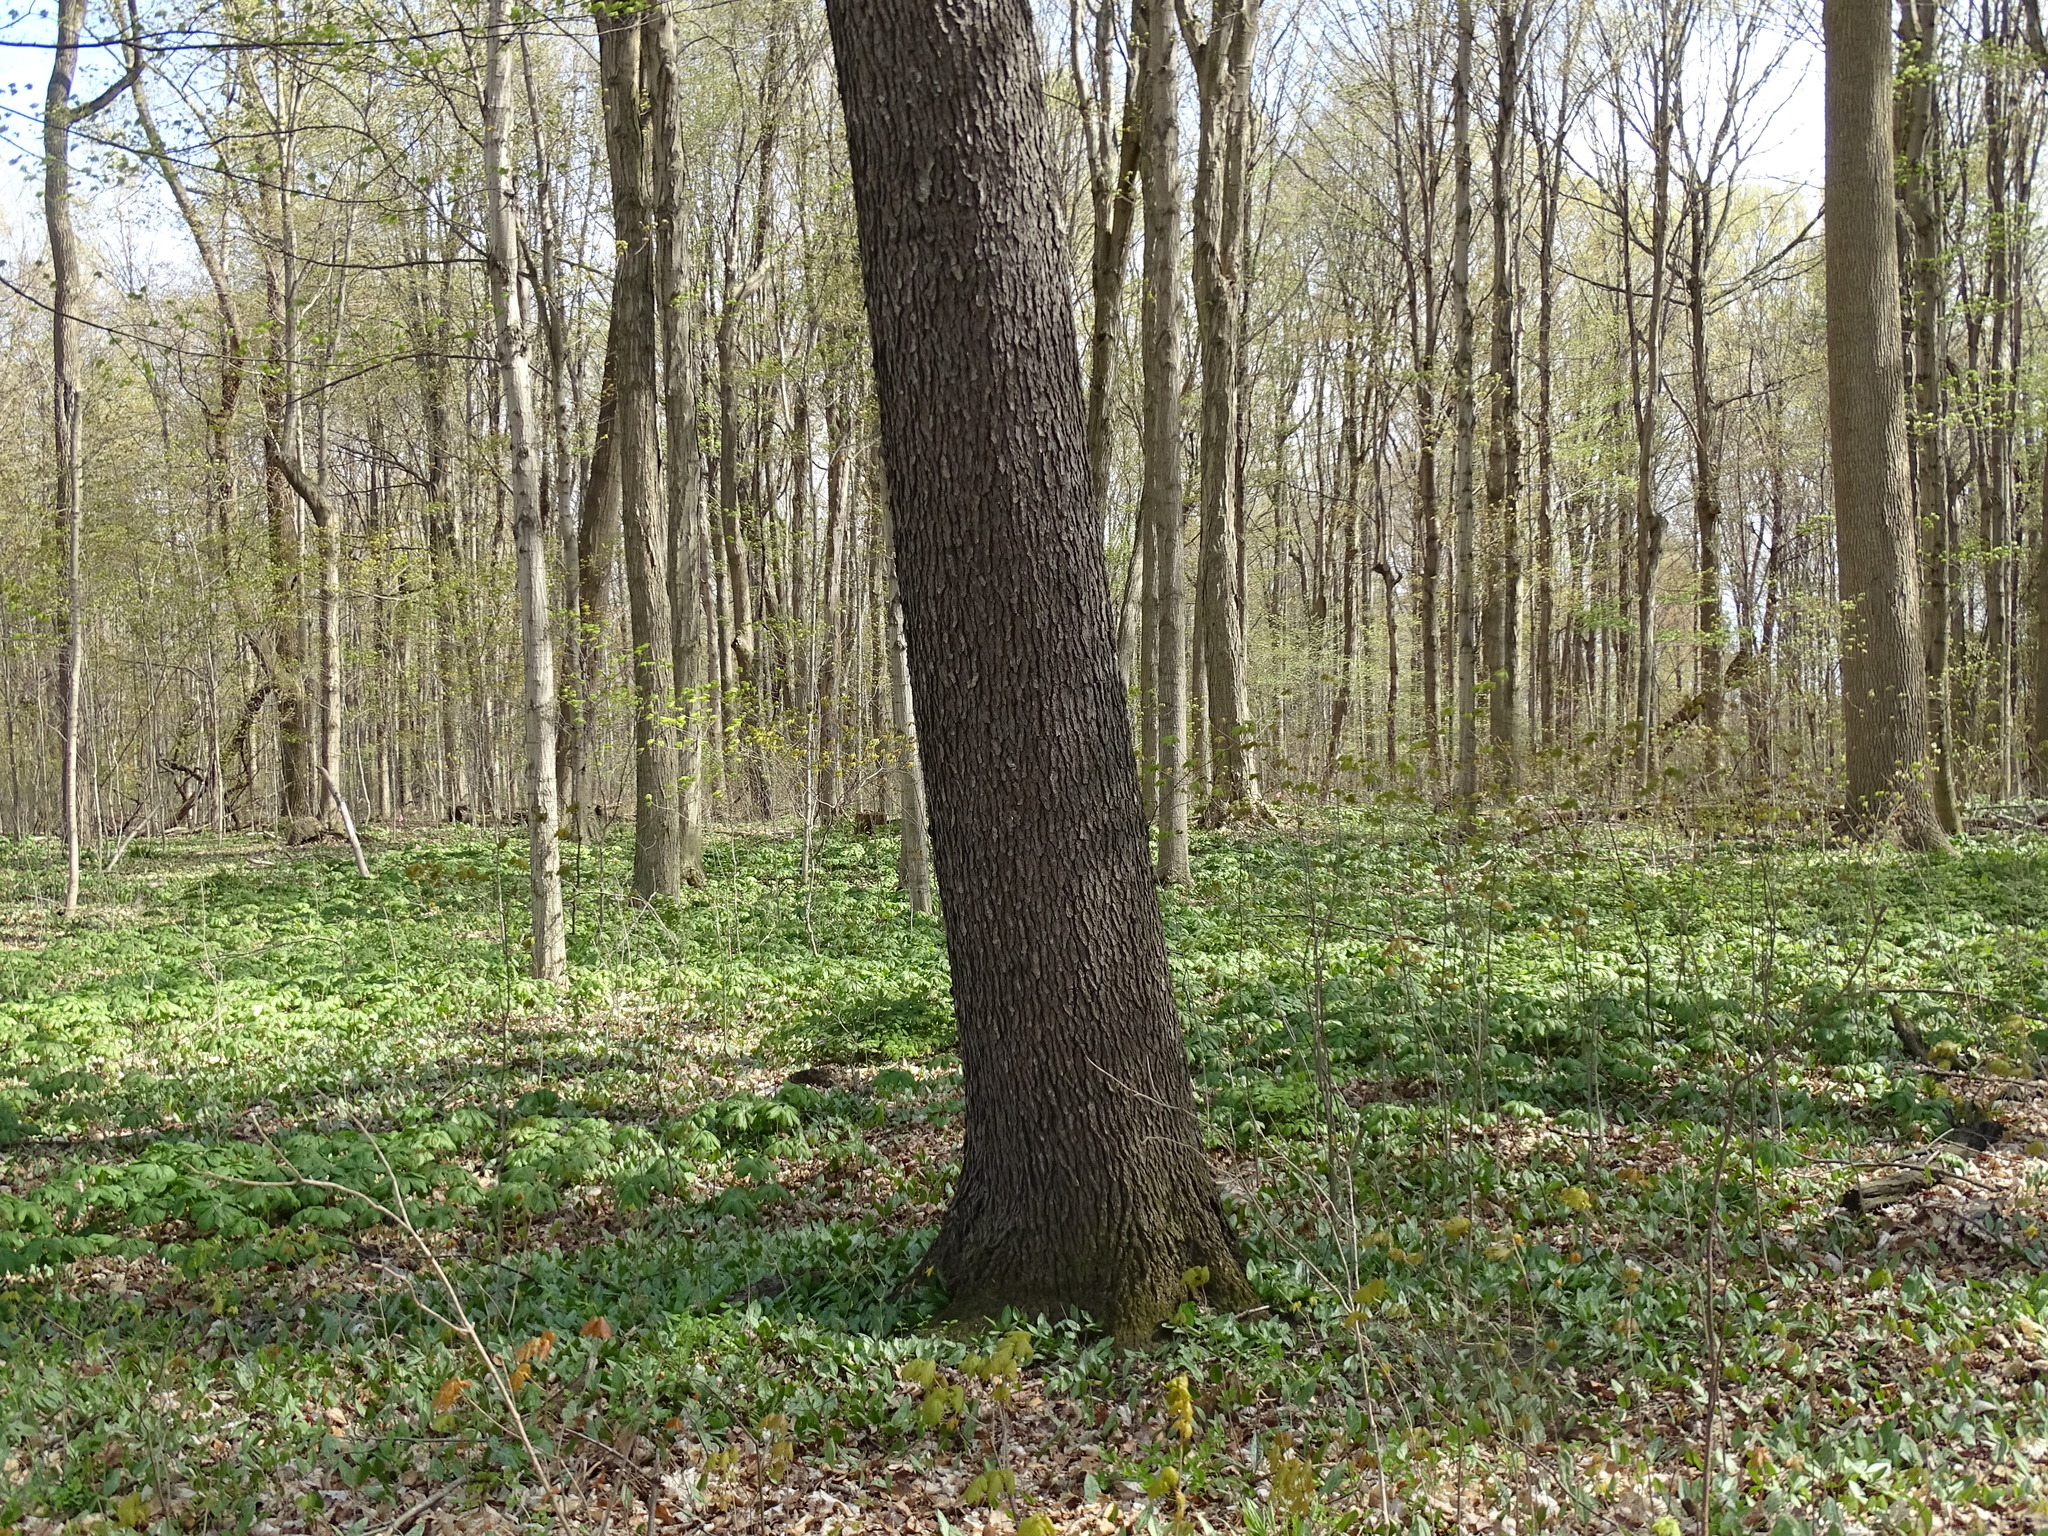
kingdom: Plantae
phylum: Tracheophyta
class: Magnoliopsida
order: Rosales
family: Rosaceae
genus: Prunus
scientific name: Prunus serotina
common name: Black cherry
